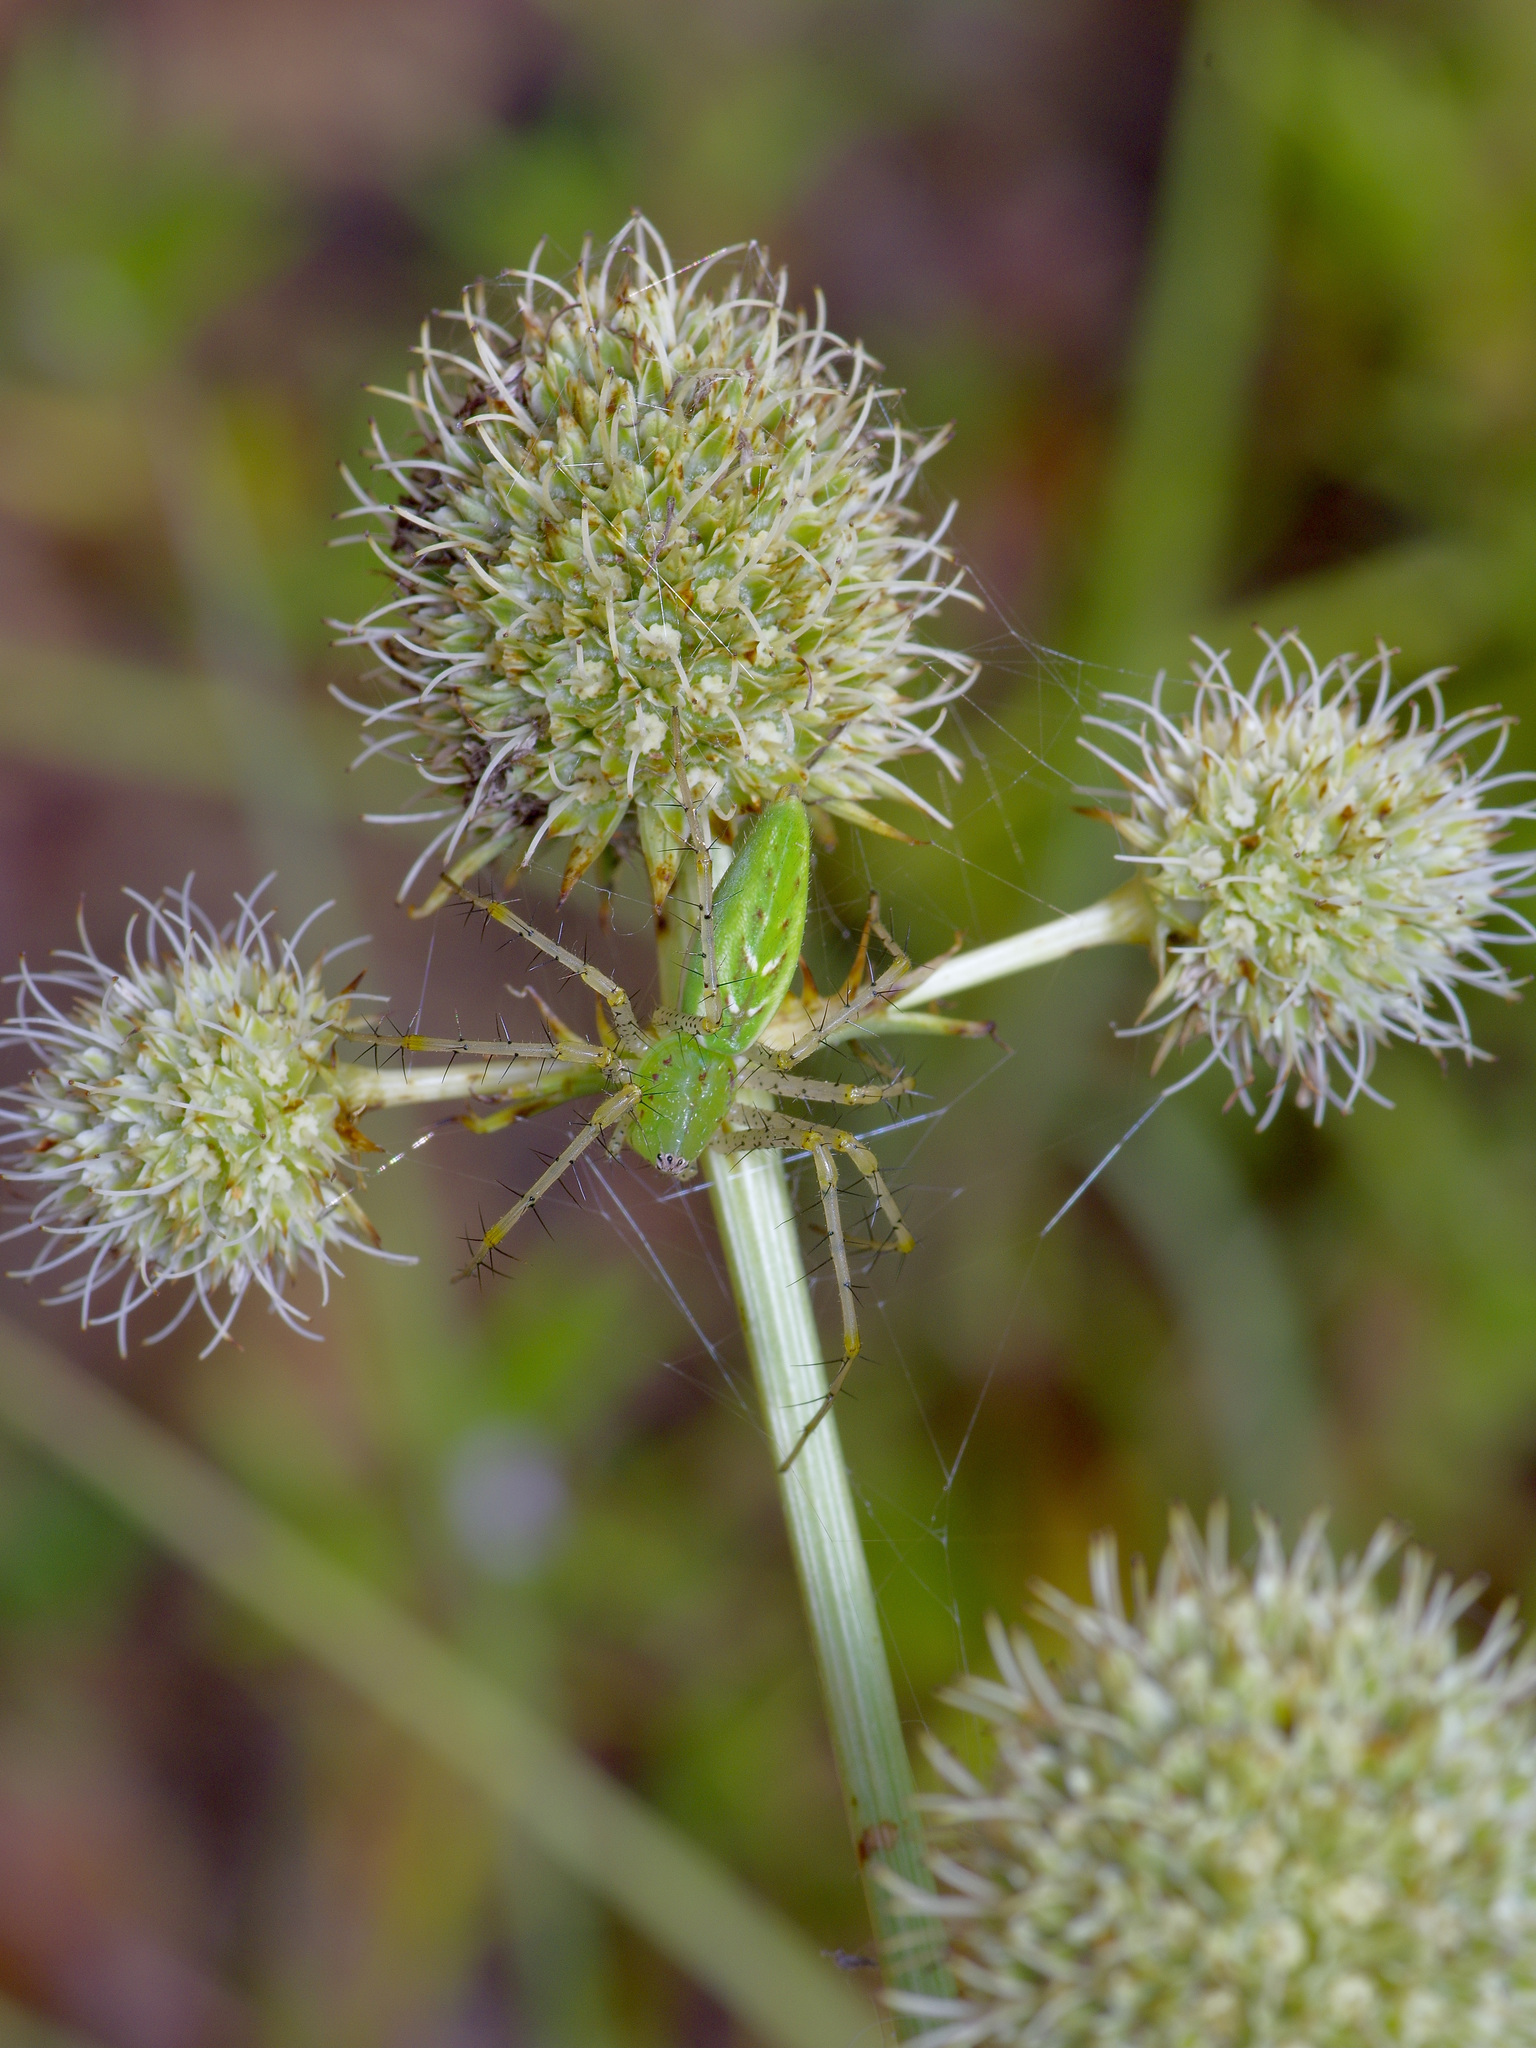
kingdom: Animalia
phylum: Arthropoda
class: Arachnida
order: Araneae
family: Oxyopidae
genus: Peucetia
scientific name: Peucetia viridans
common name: Lynx spiders
